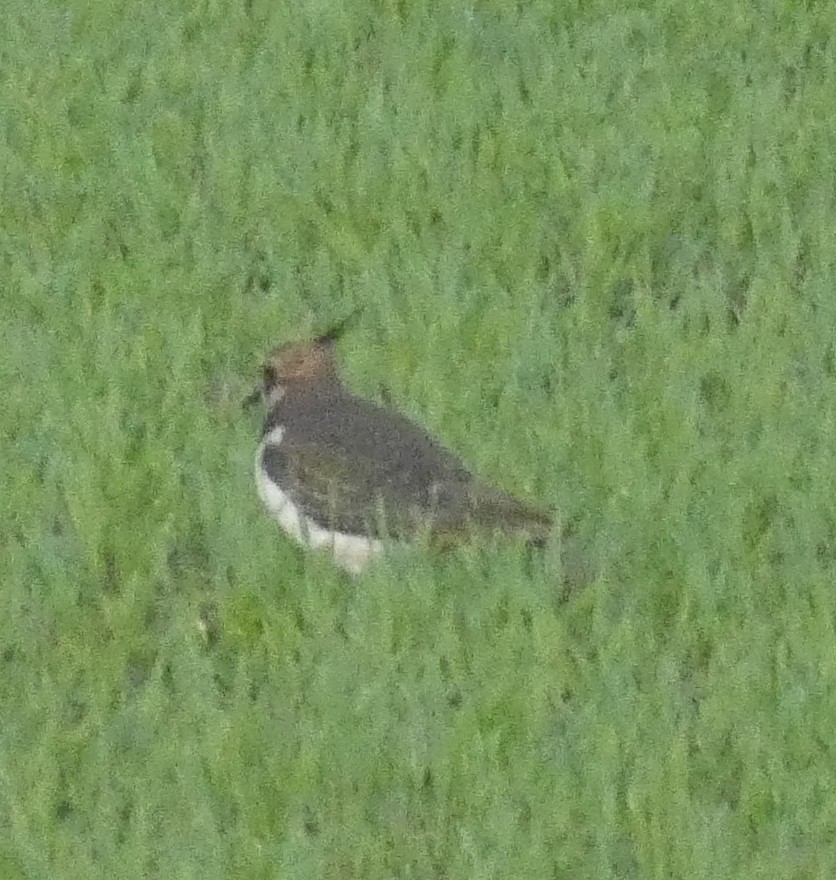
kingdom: Animalia
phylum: Chordata
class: Aves
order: Charadriiformes
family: Charadriidae
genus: Vanellus
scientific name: Vanellus vanellus
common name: Northern lapwing
